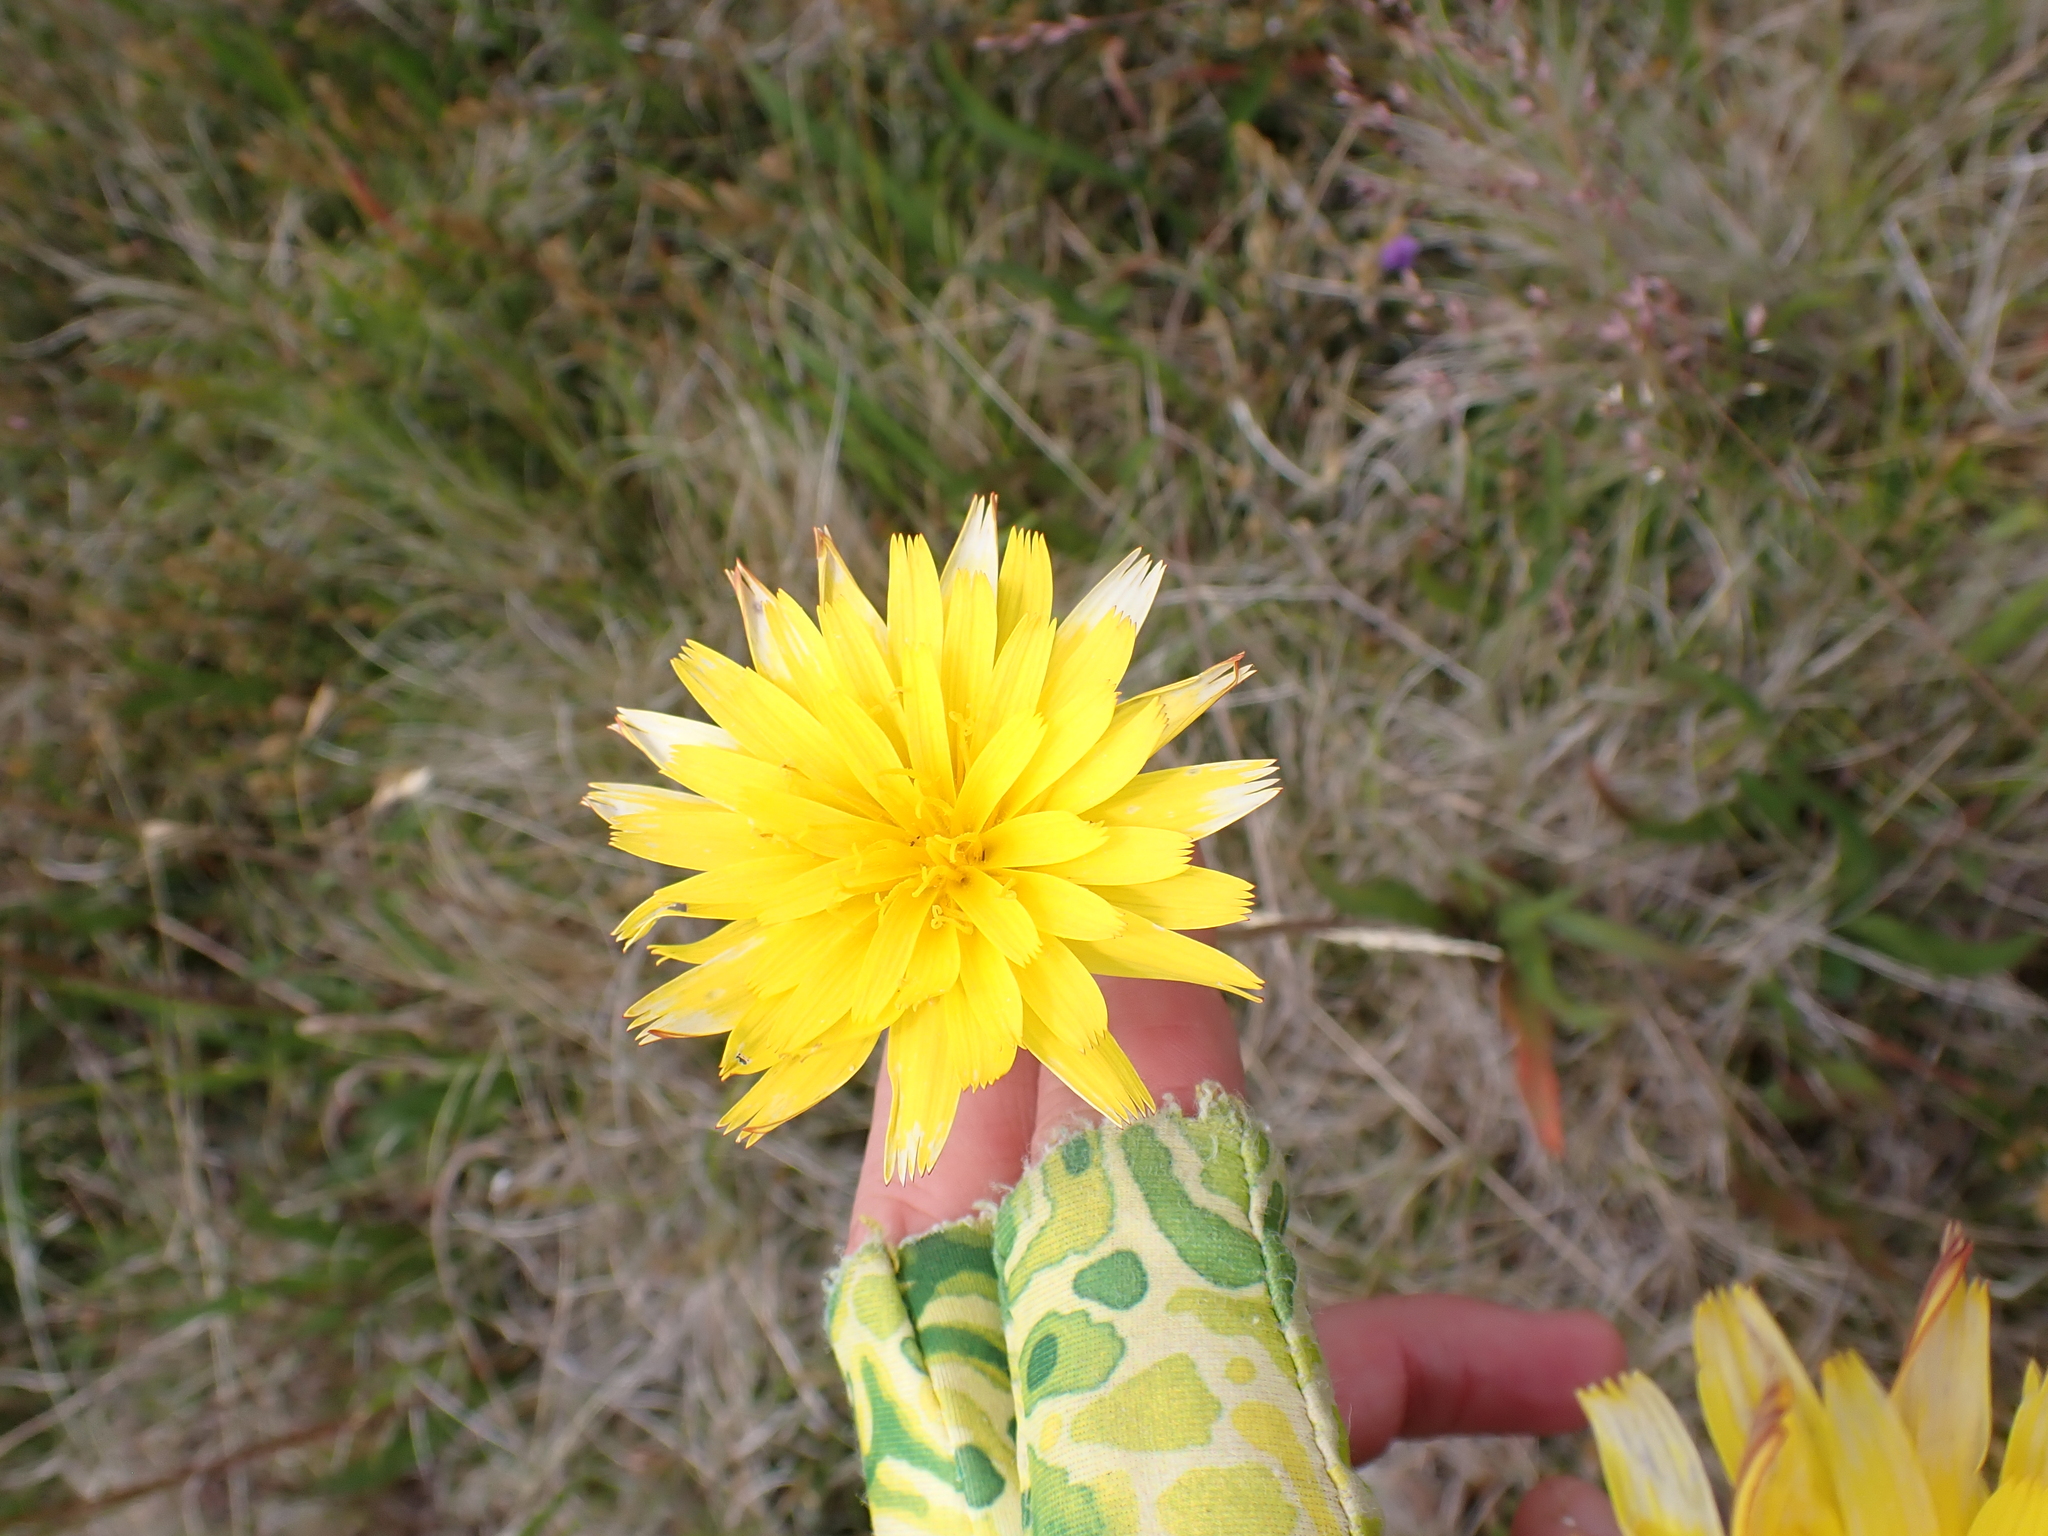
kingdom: Plantae
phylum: Tracheophyta
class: Magnoliopsida
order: Asterales
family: Asteraceae
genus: Microseris
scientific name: Microseris lanceolata
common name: Yam daisy
